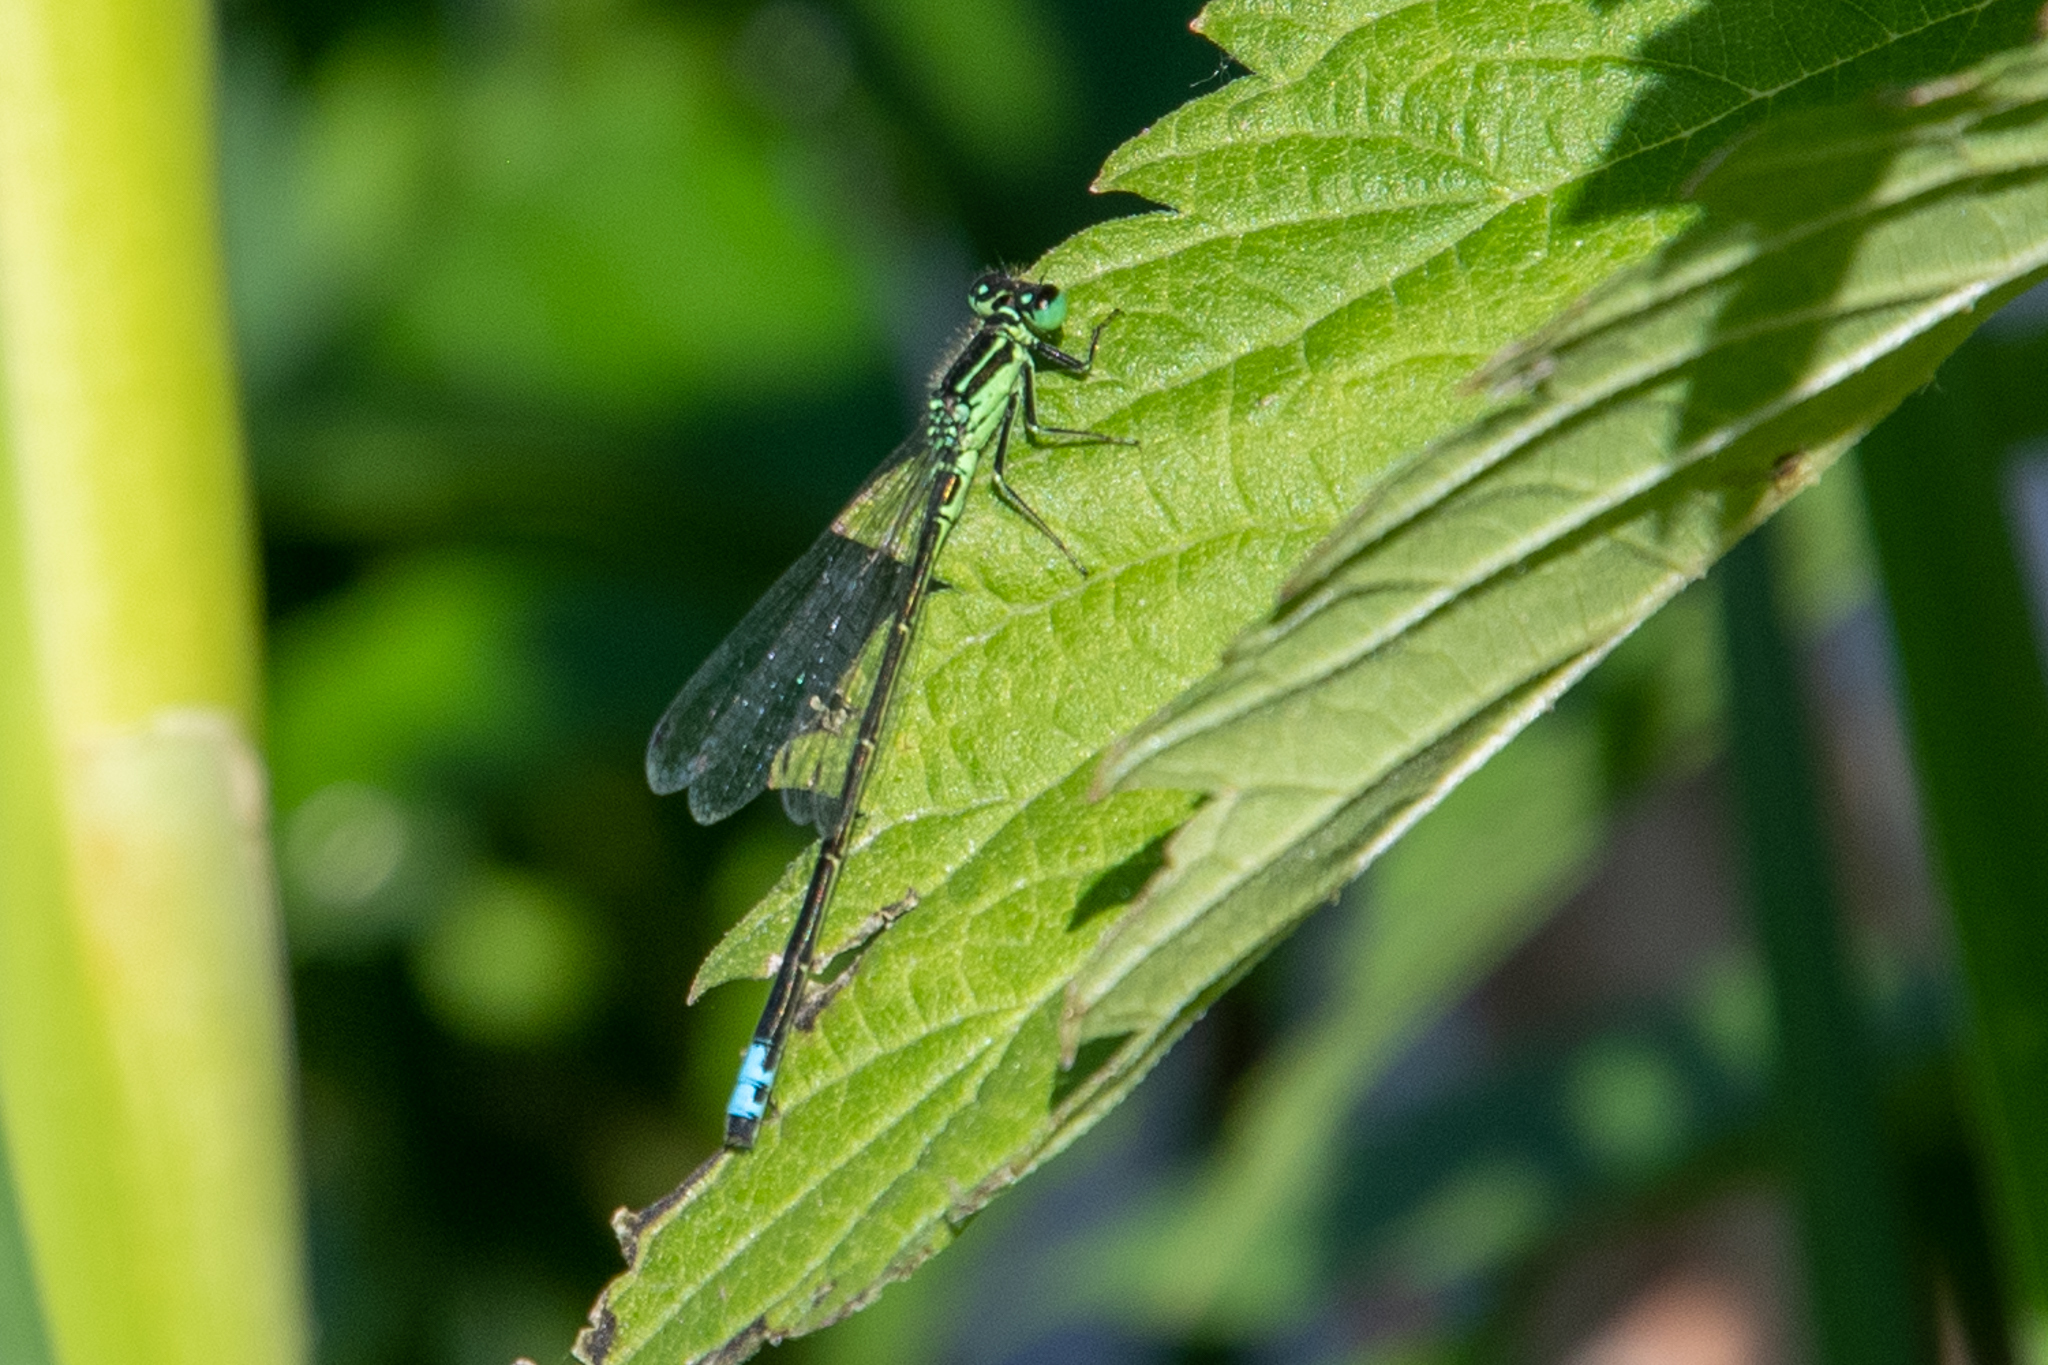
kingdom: Animalia
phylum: Arthropoda
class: Insecta
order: Odonata
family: Coenagrionidae
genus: Ischnura
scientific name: Ischnura verticalis
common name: Eastern forktail
